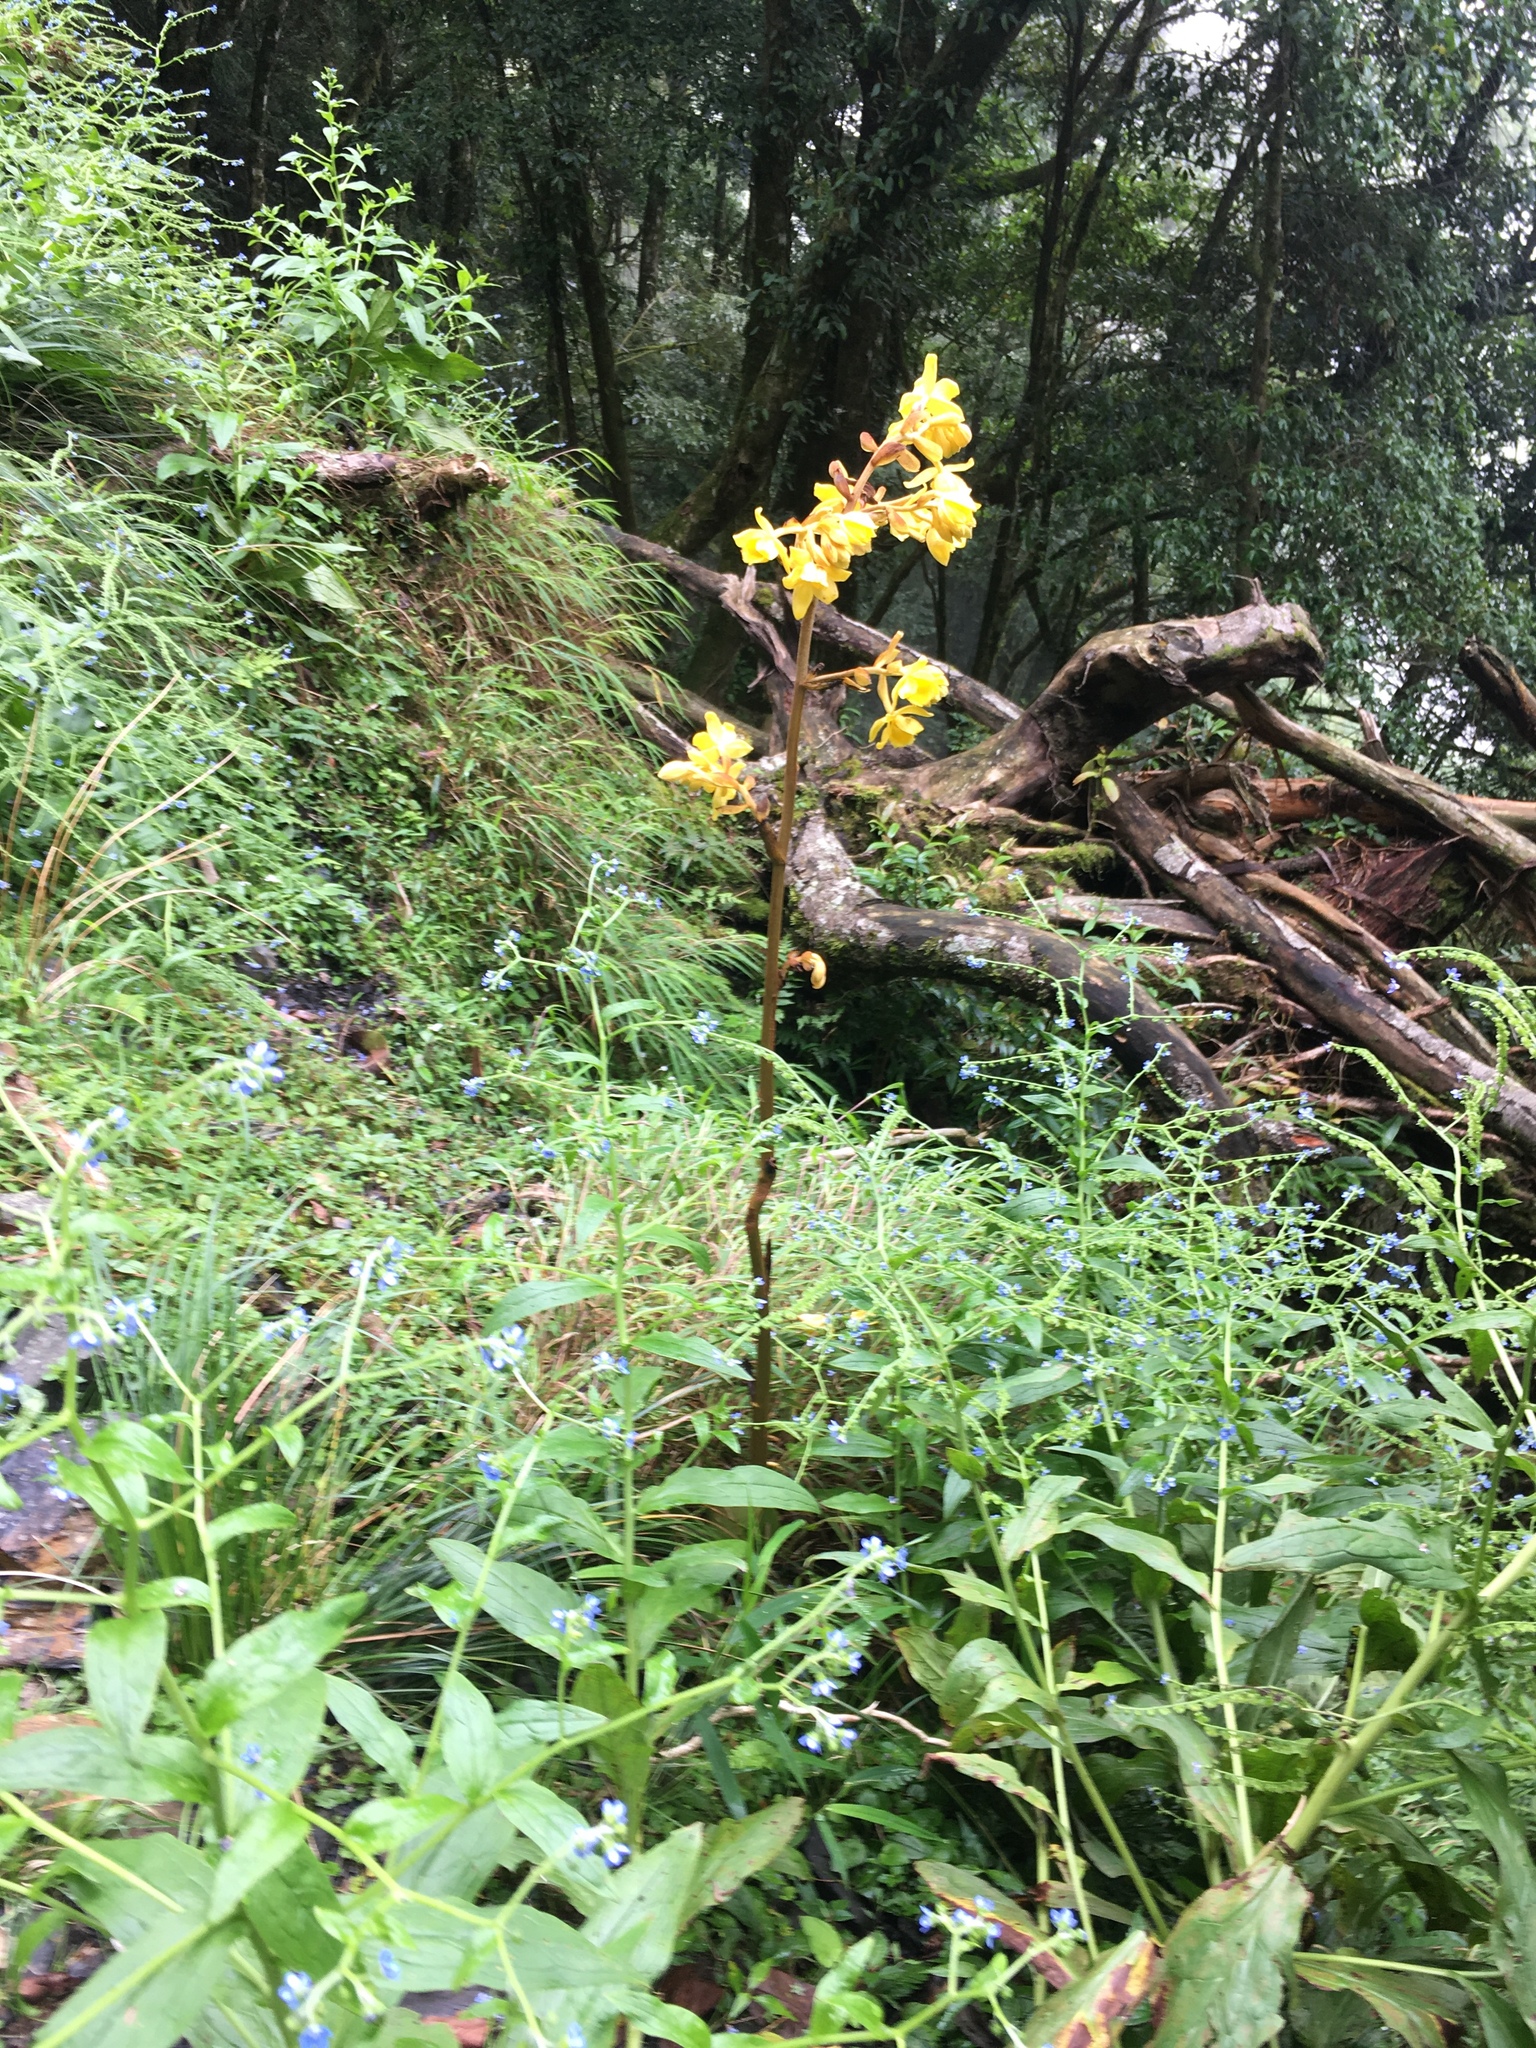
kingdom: Plantae
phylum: Tracheophyta
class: Liliopsida
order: Asparagales
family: Orchidaceae
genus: Cyrtosia
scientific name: Cyrtosia falconeri
